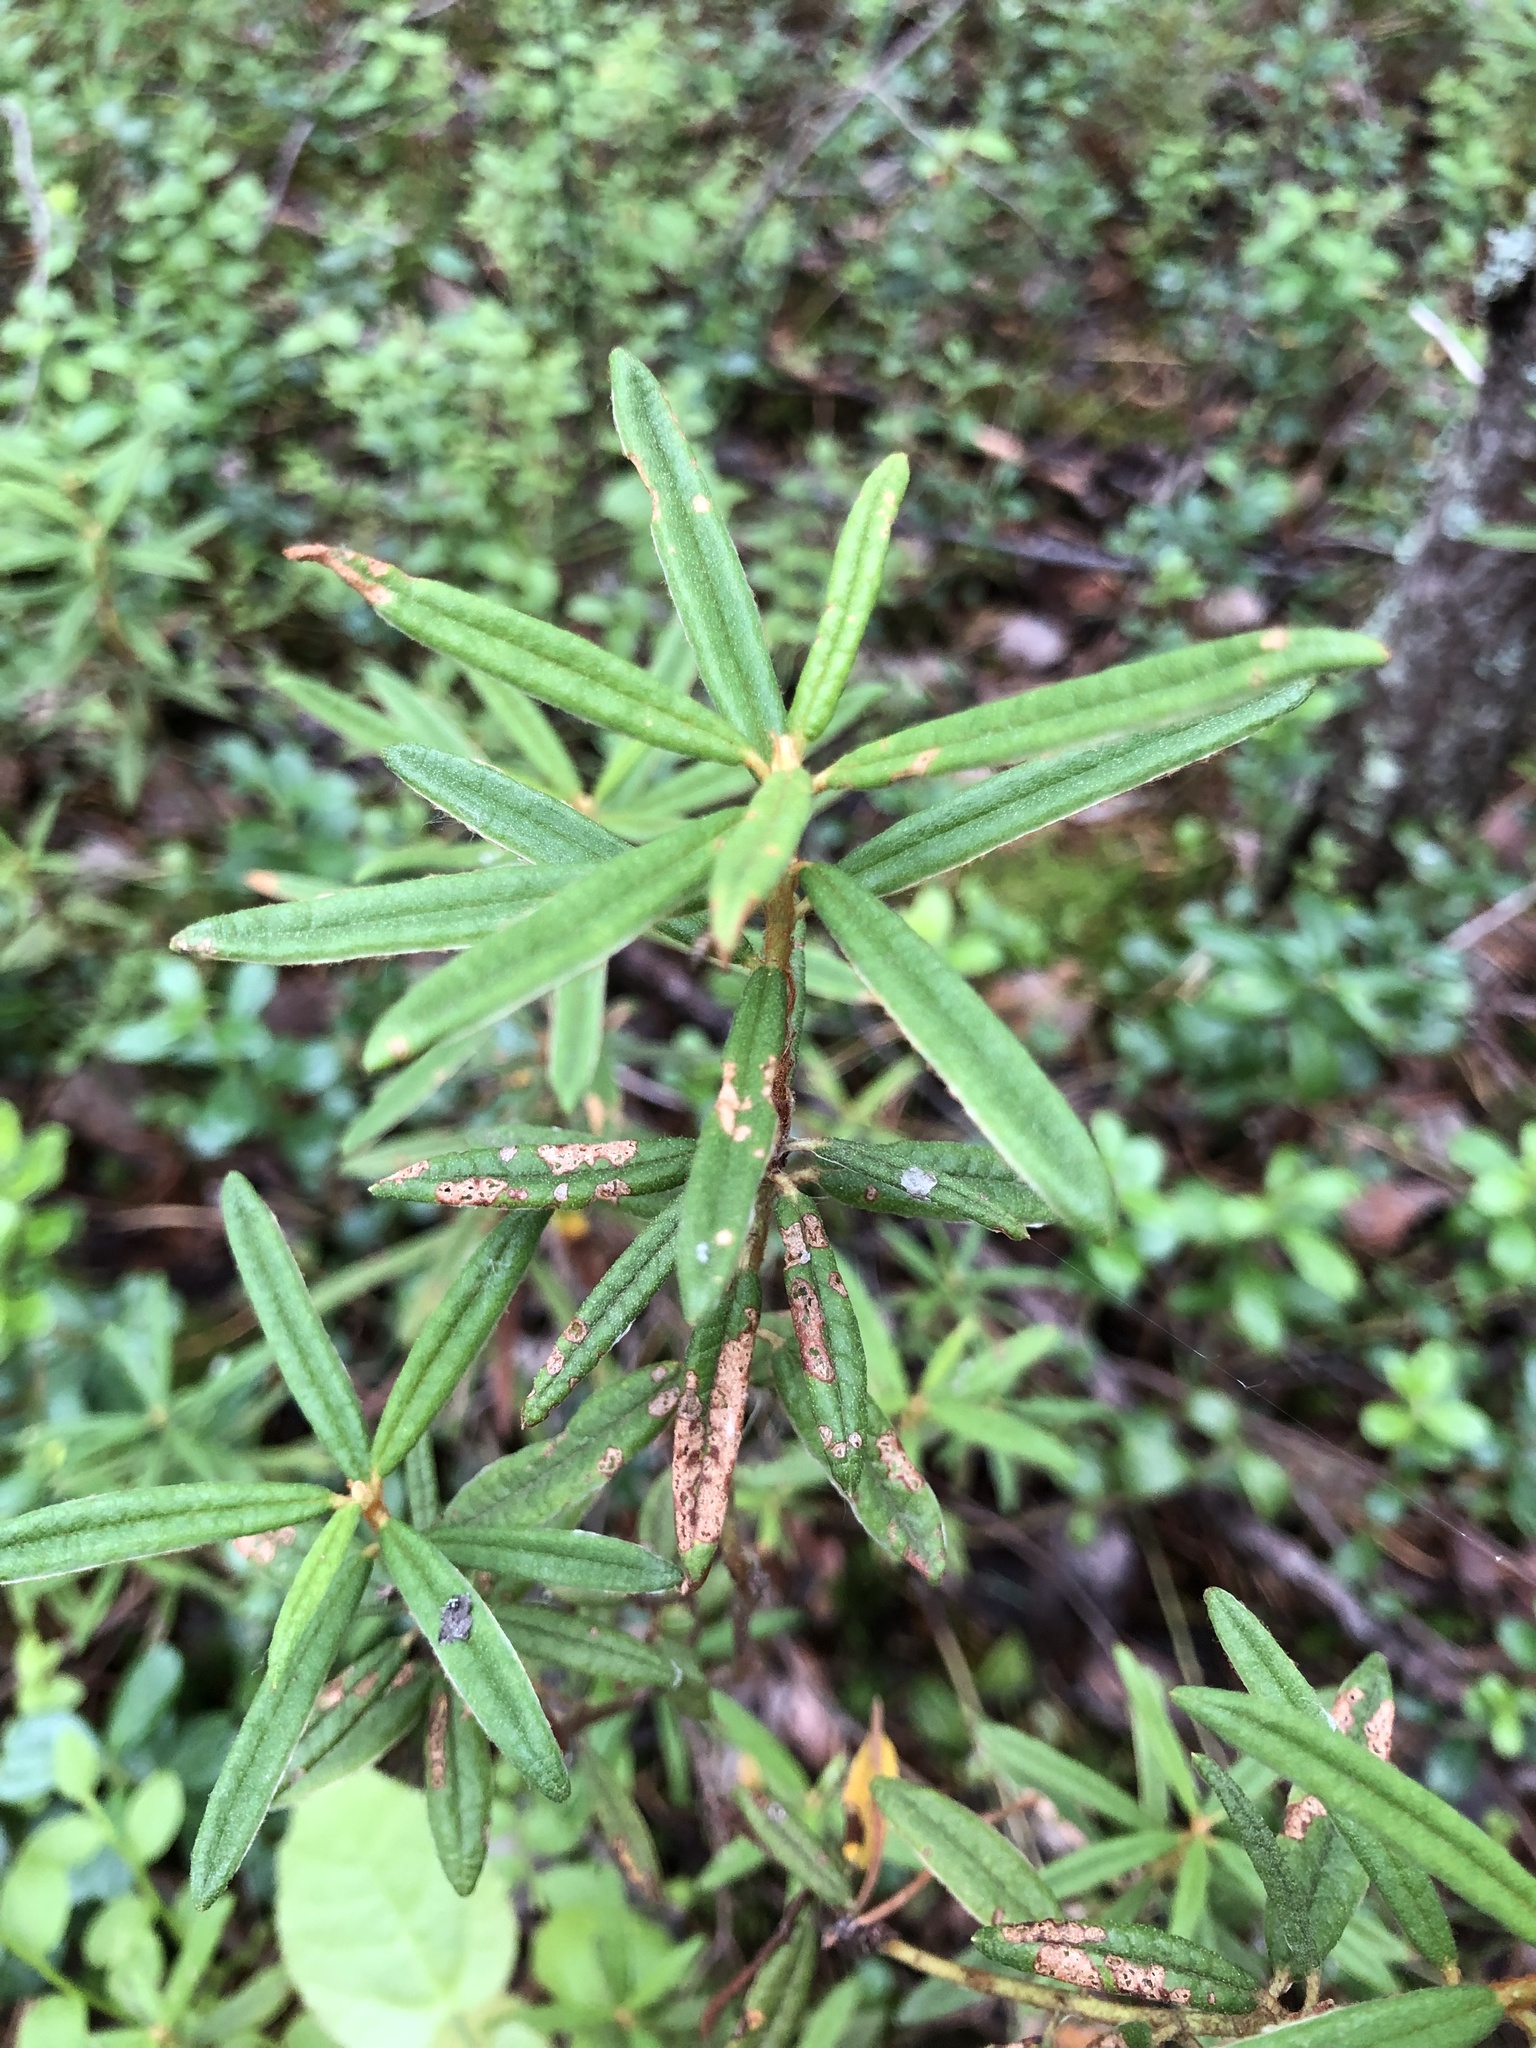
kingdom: Plantae
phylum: Tracheophyta
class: Magnoliopsida
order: Ericales
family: Ericaceae
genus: Rhododendron
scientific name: Rhododendron tomentosum
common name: Marsh labrador tea
